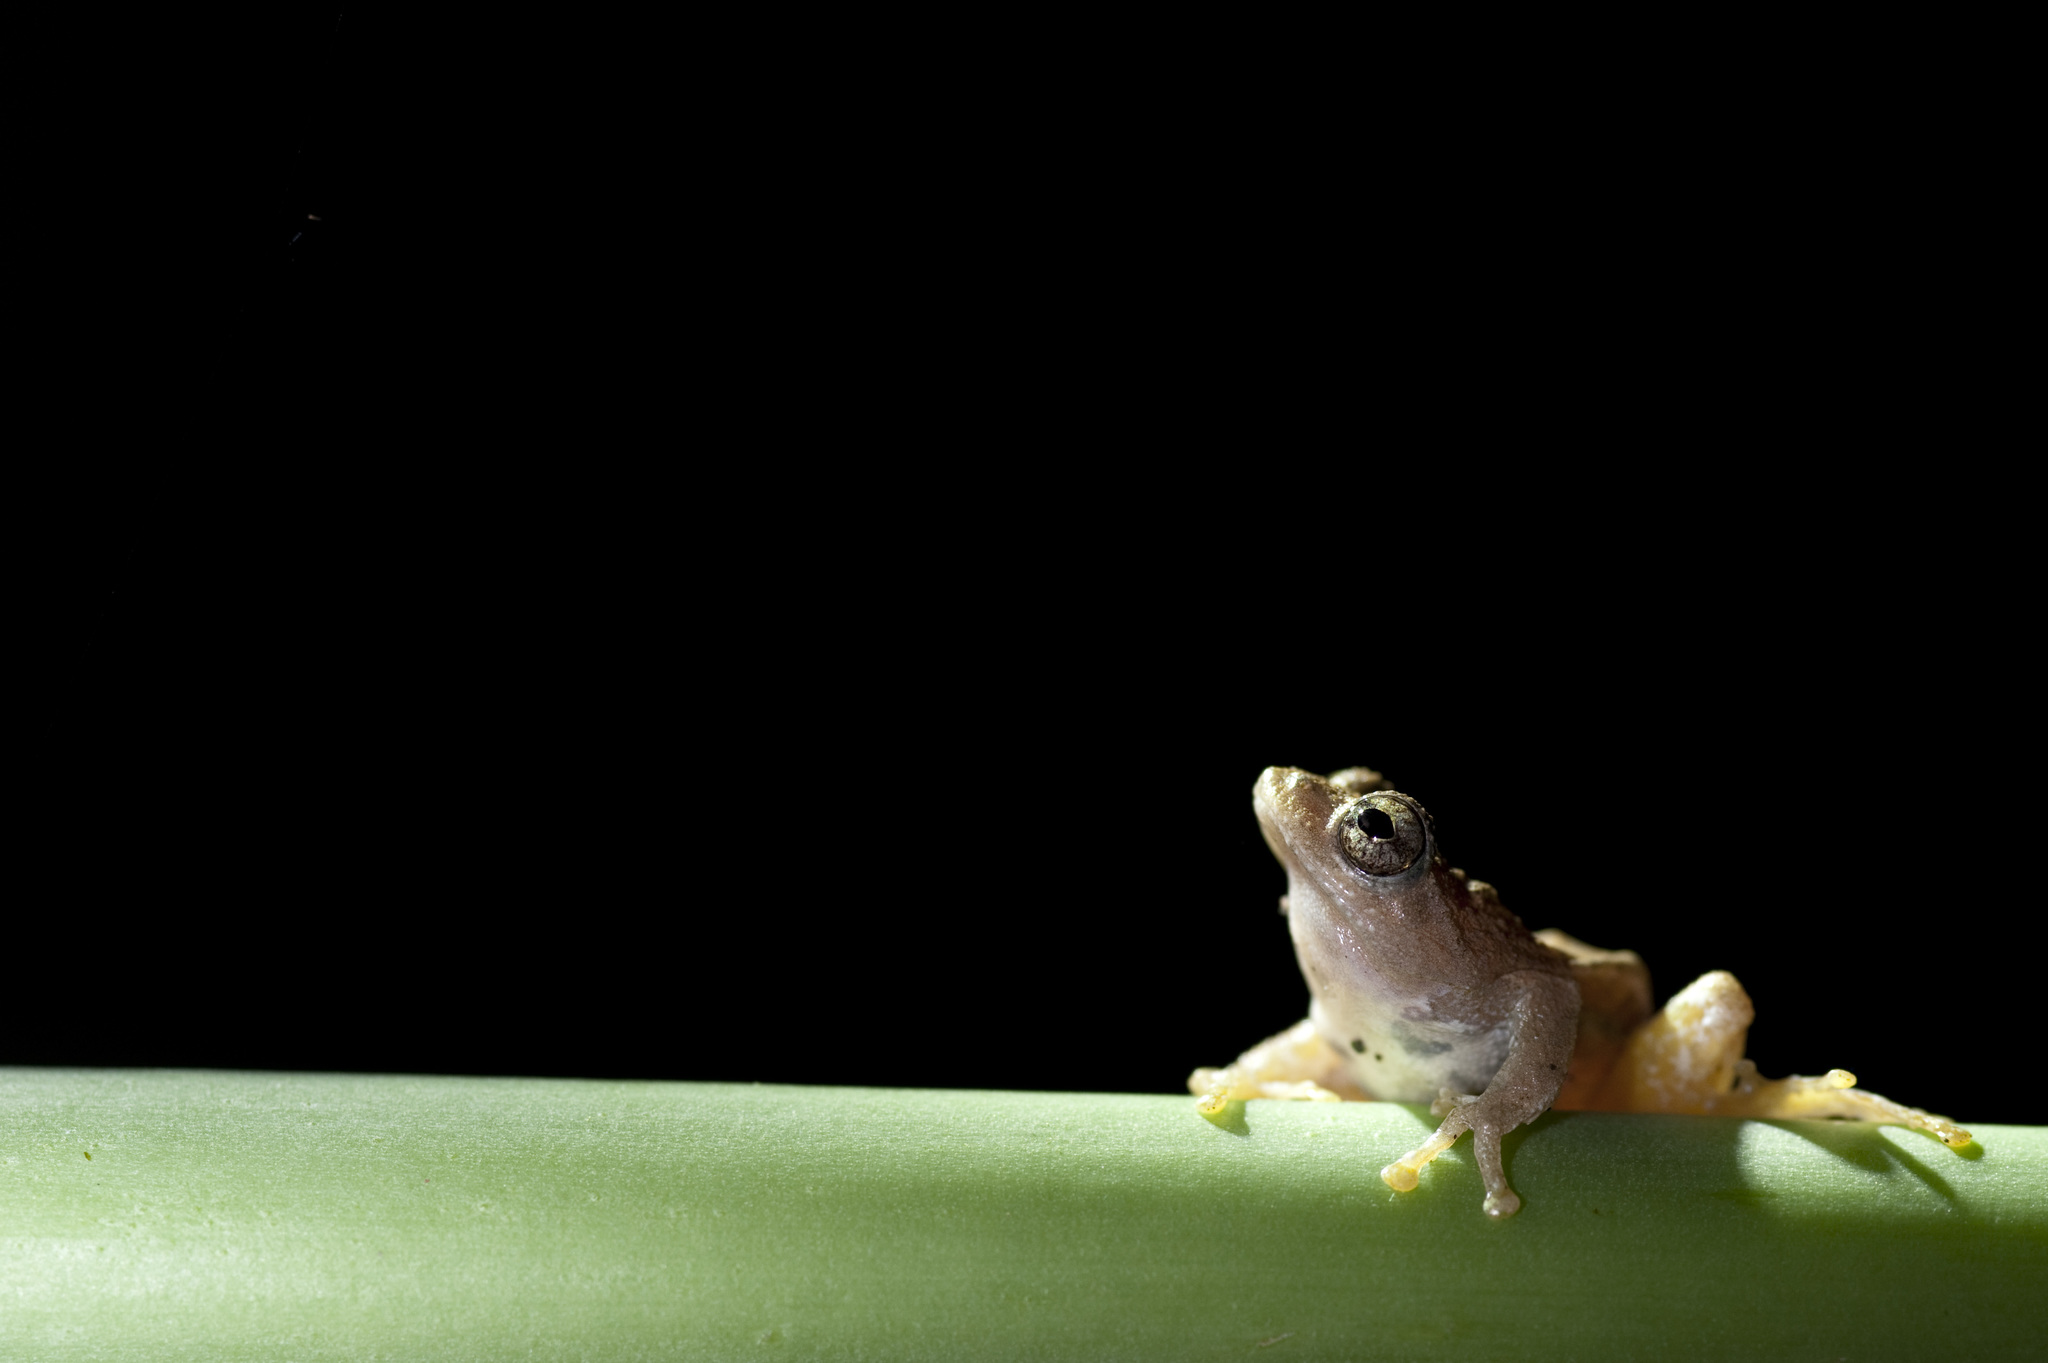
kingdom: Animalia
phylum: Chordata
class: Amphibia
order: Anura
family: Rhacophoridae
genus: Kurixalus
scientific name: Kurixalus idiootocus
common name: Temple treefrog
